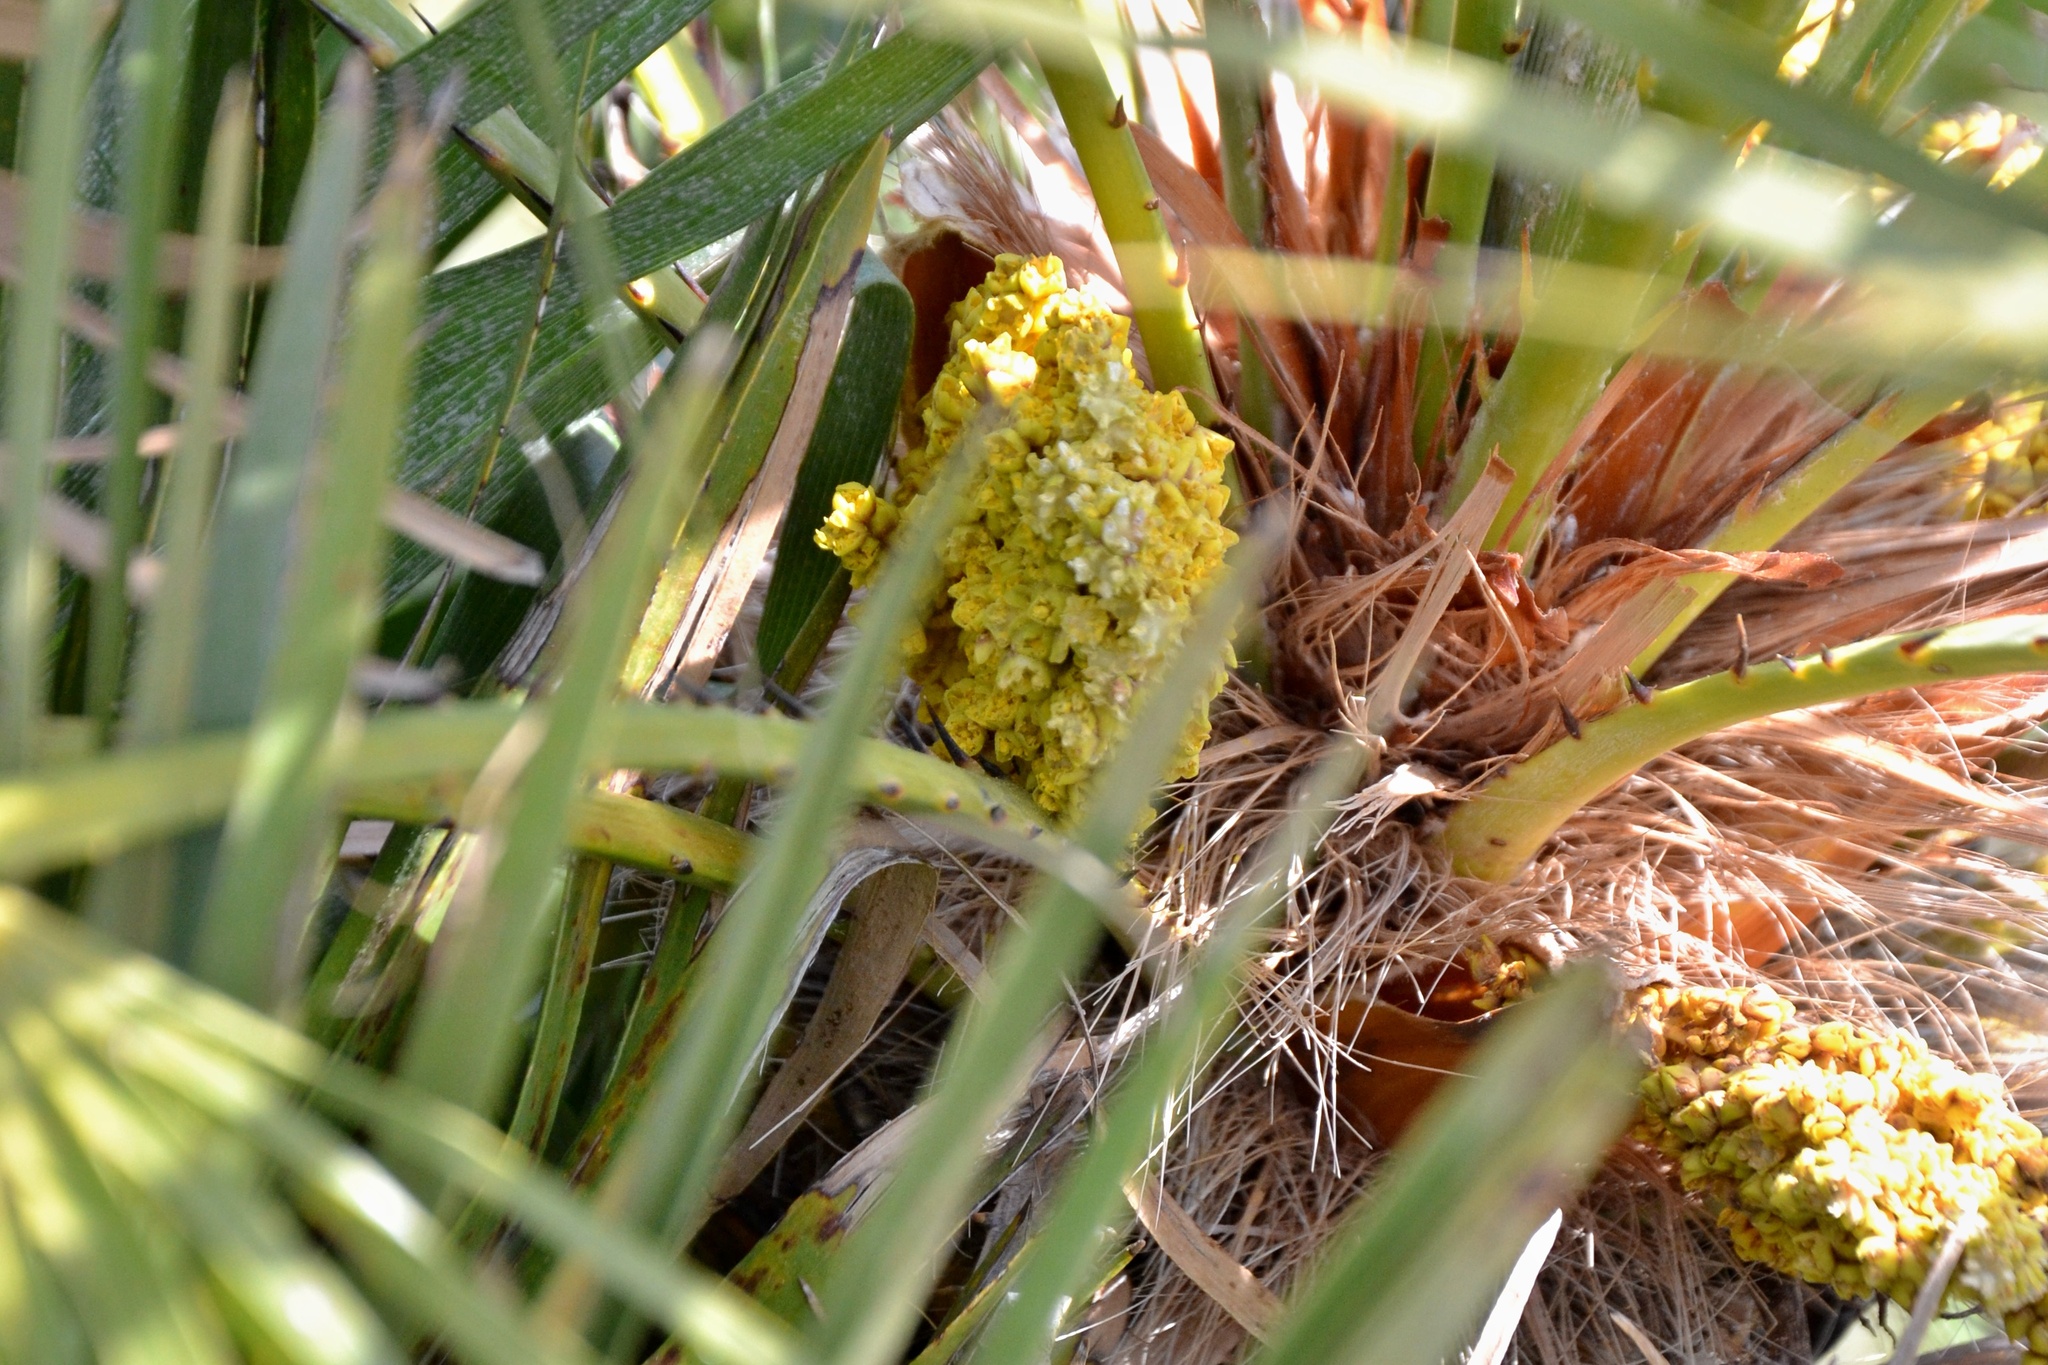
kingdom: Plantae
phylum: Tracheophyta
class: Liliopsida
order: Arecales
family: Arecaceae
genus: Chamaerops
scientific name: Chamaerops humilis
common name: Dwarf fan palm
